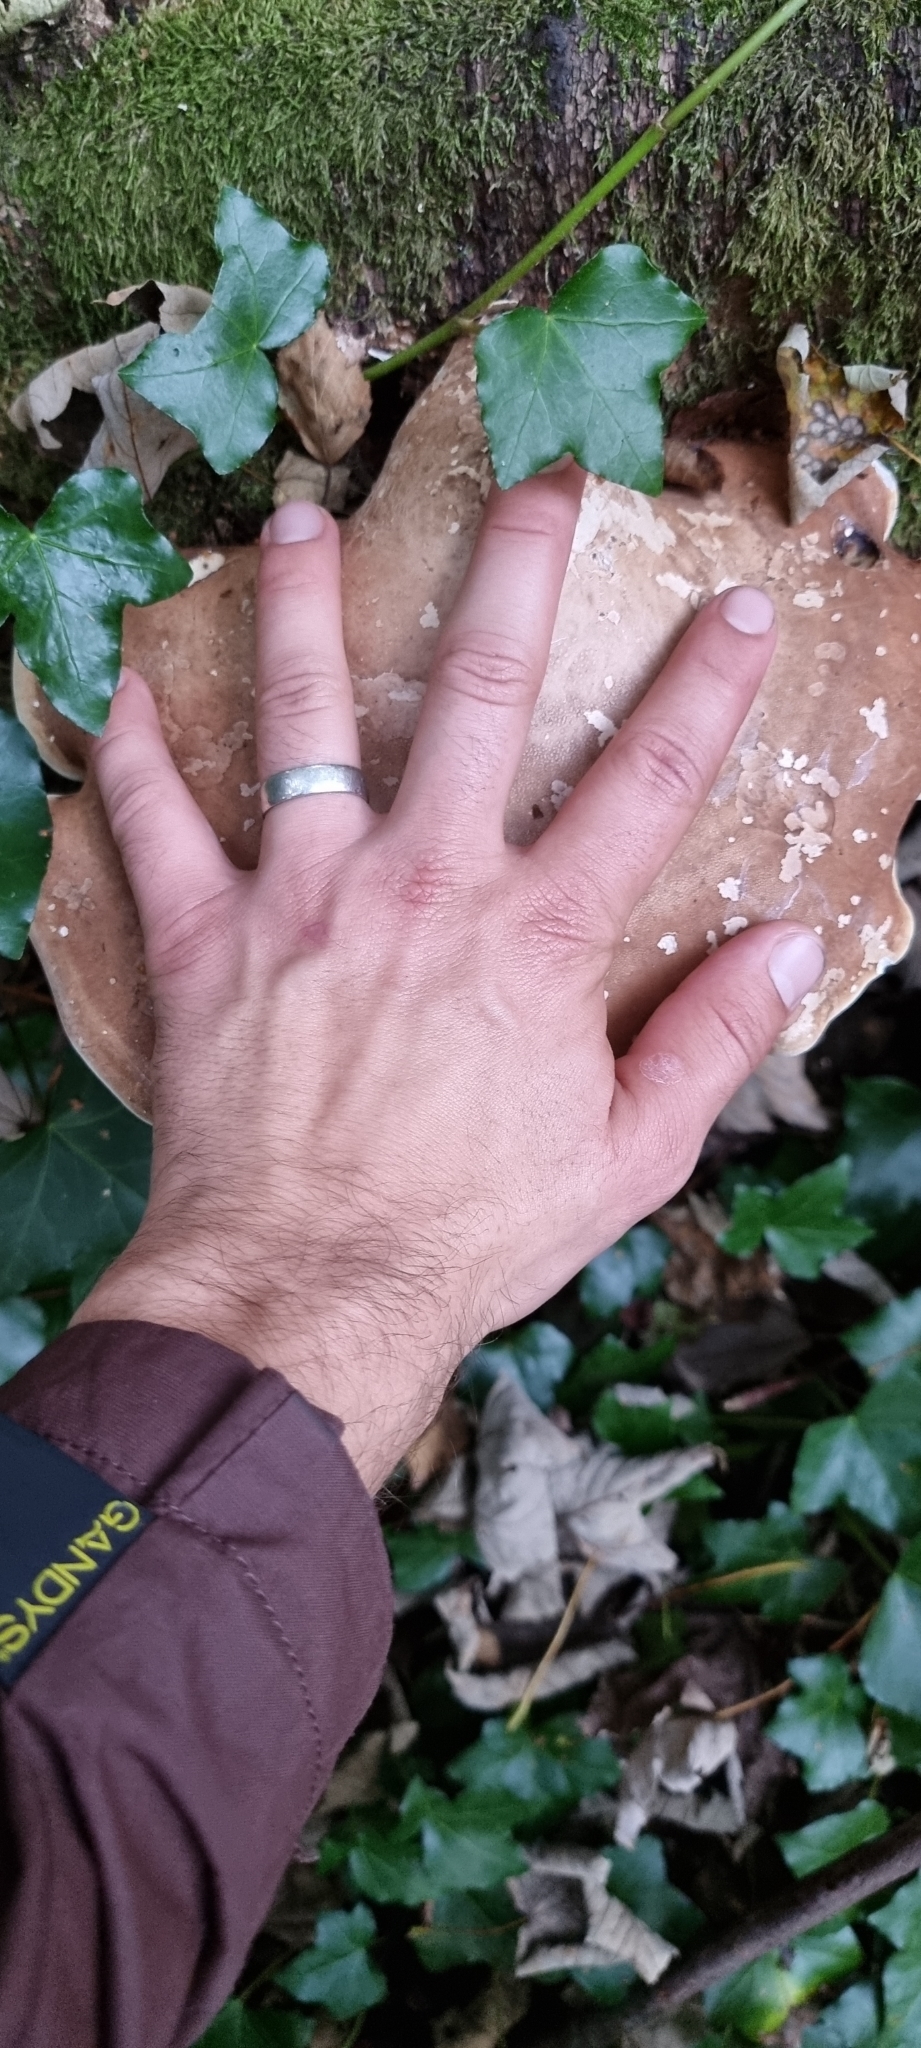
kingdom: Fungi
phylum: Basidiomycota
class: Agaricomycetes
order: Polyporales
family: Fomitopsidaceae
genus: Fomitopsis
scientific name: Fomitopsis betulina
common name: Birch polypore
